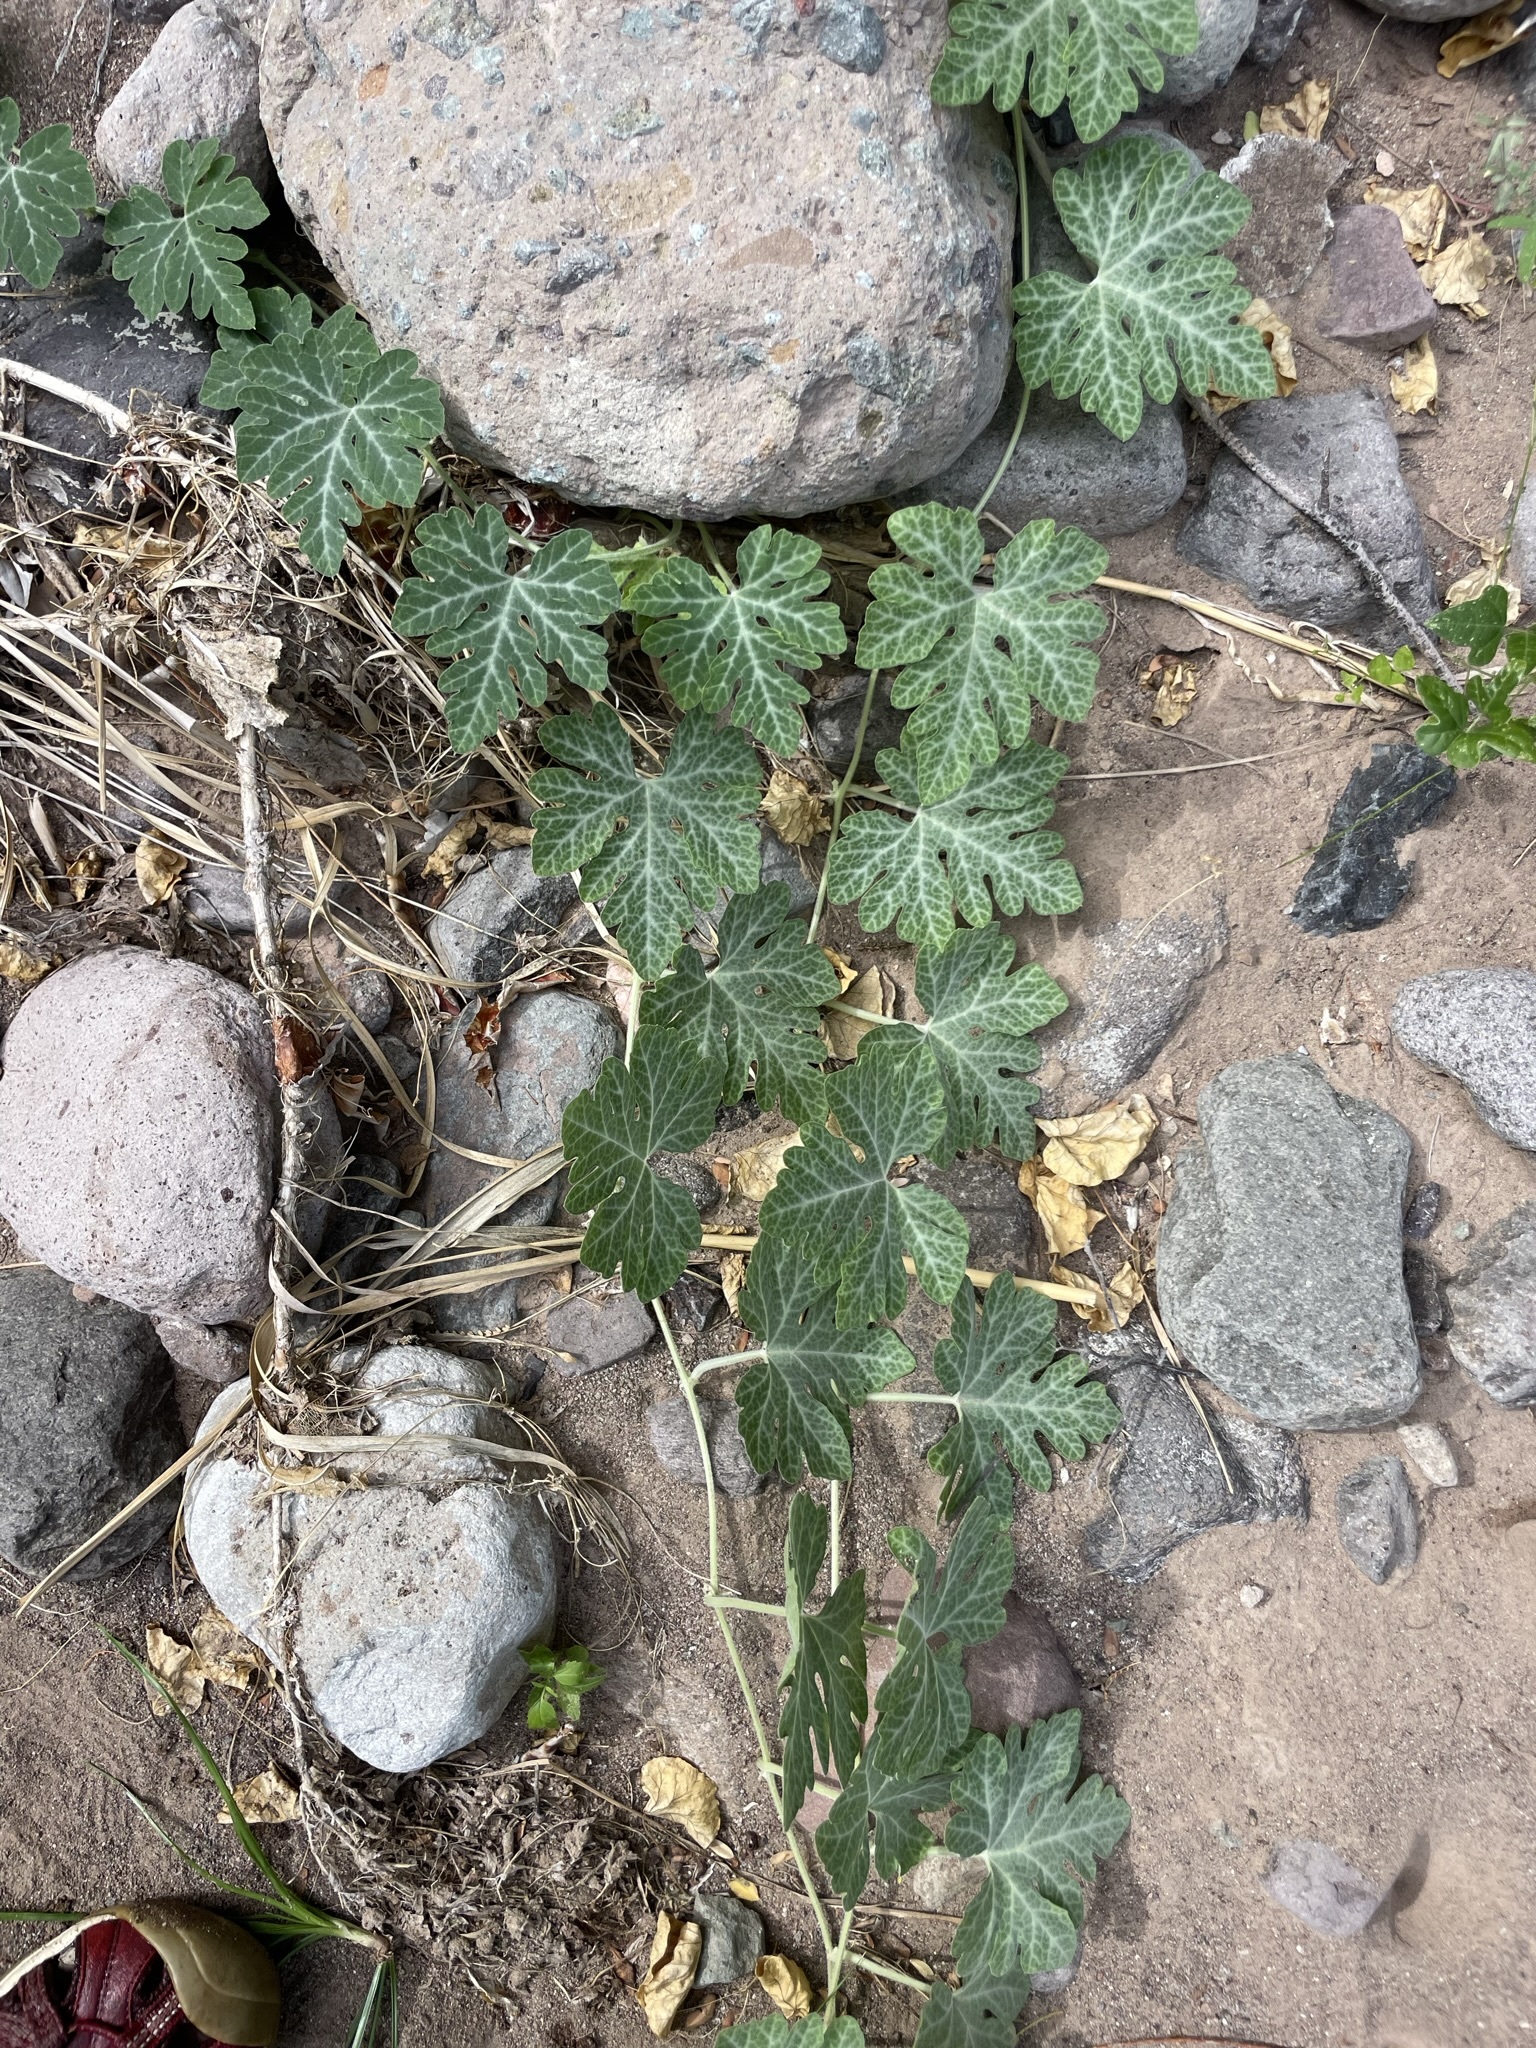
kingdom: Plantae
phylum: Tracheophyta
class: Magnoliopsida
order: Cucurbitales
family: Cucurbitaceae
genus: Cucurbita
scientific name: Cucurbita cordata
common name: Coyote gourd
